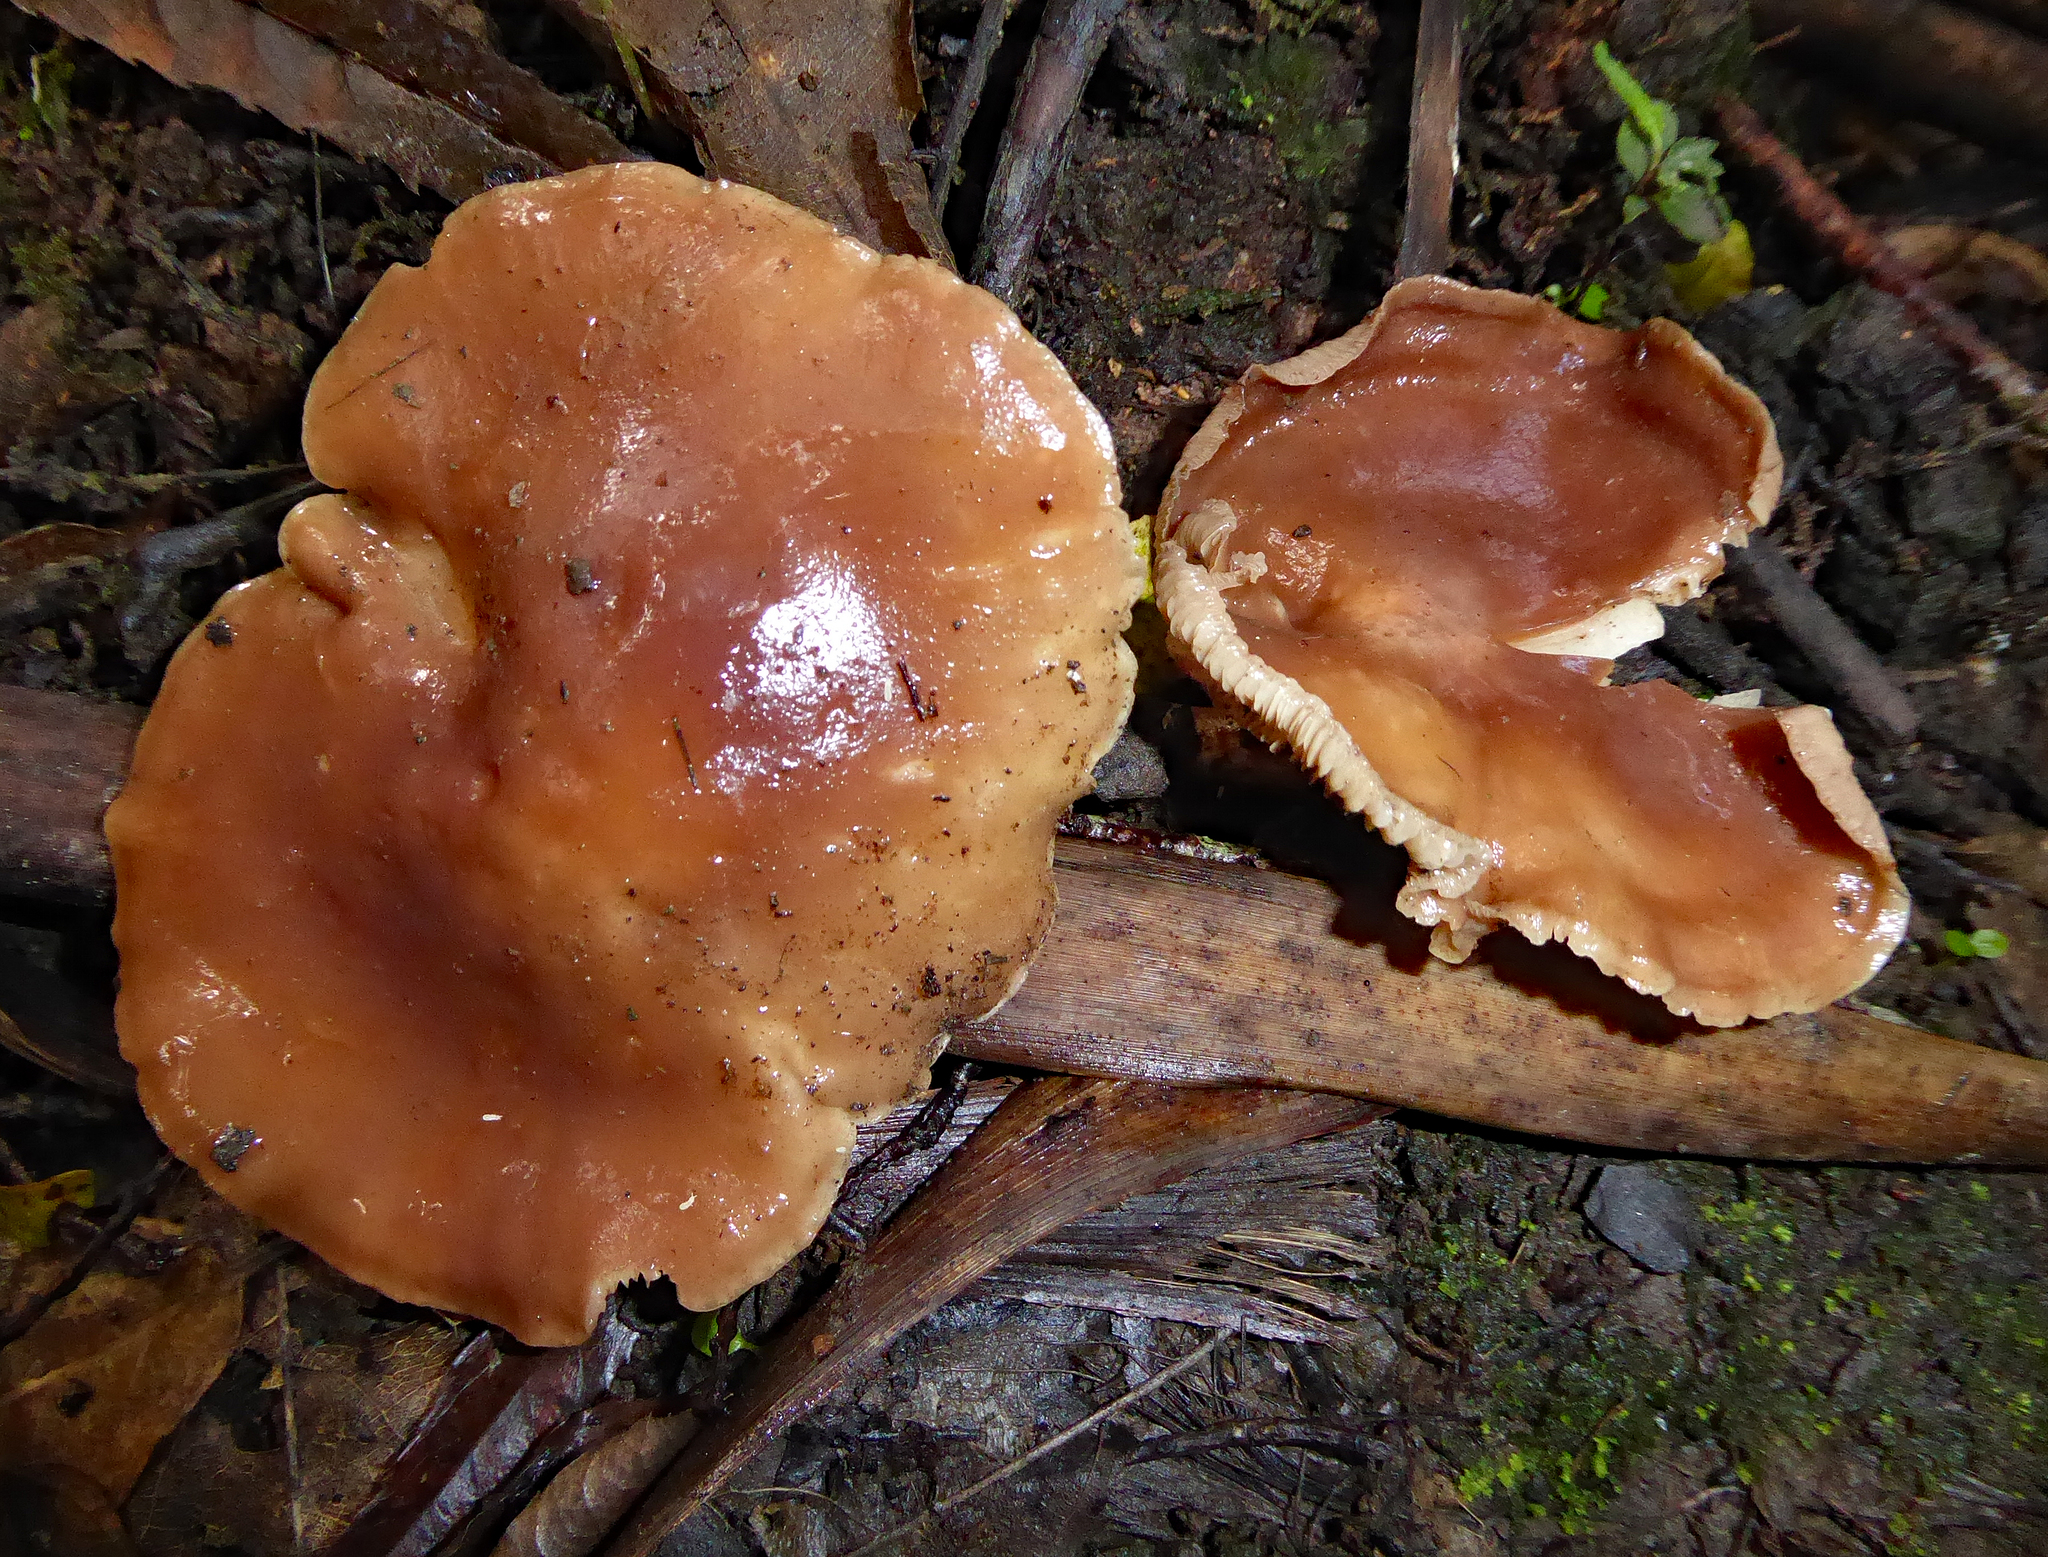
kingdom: Fungi
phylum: Basidiomycota
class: Agaricomycetes
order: Agaricales
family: Callistosporiaceae
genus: Callistosporium
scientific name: Callistosporium
